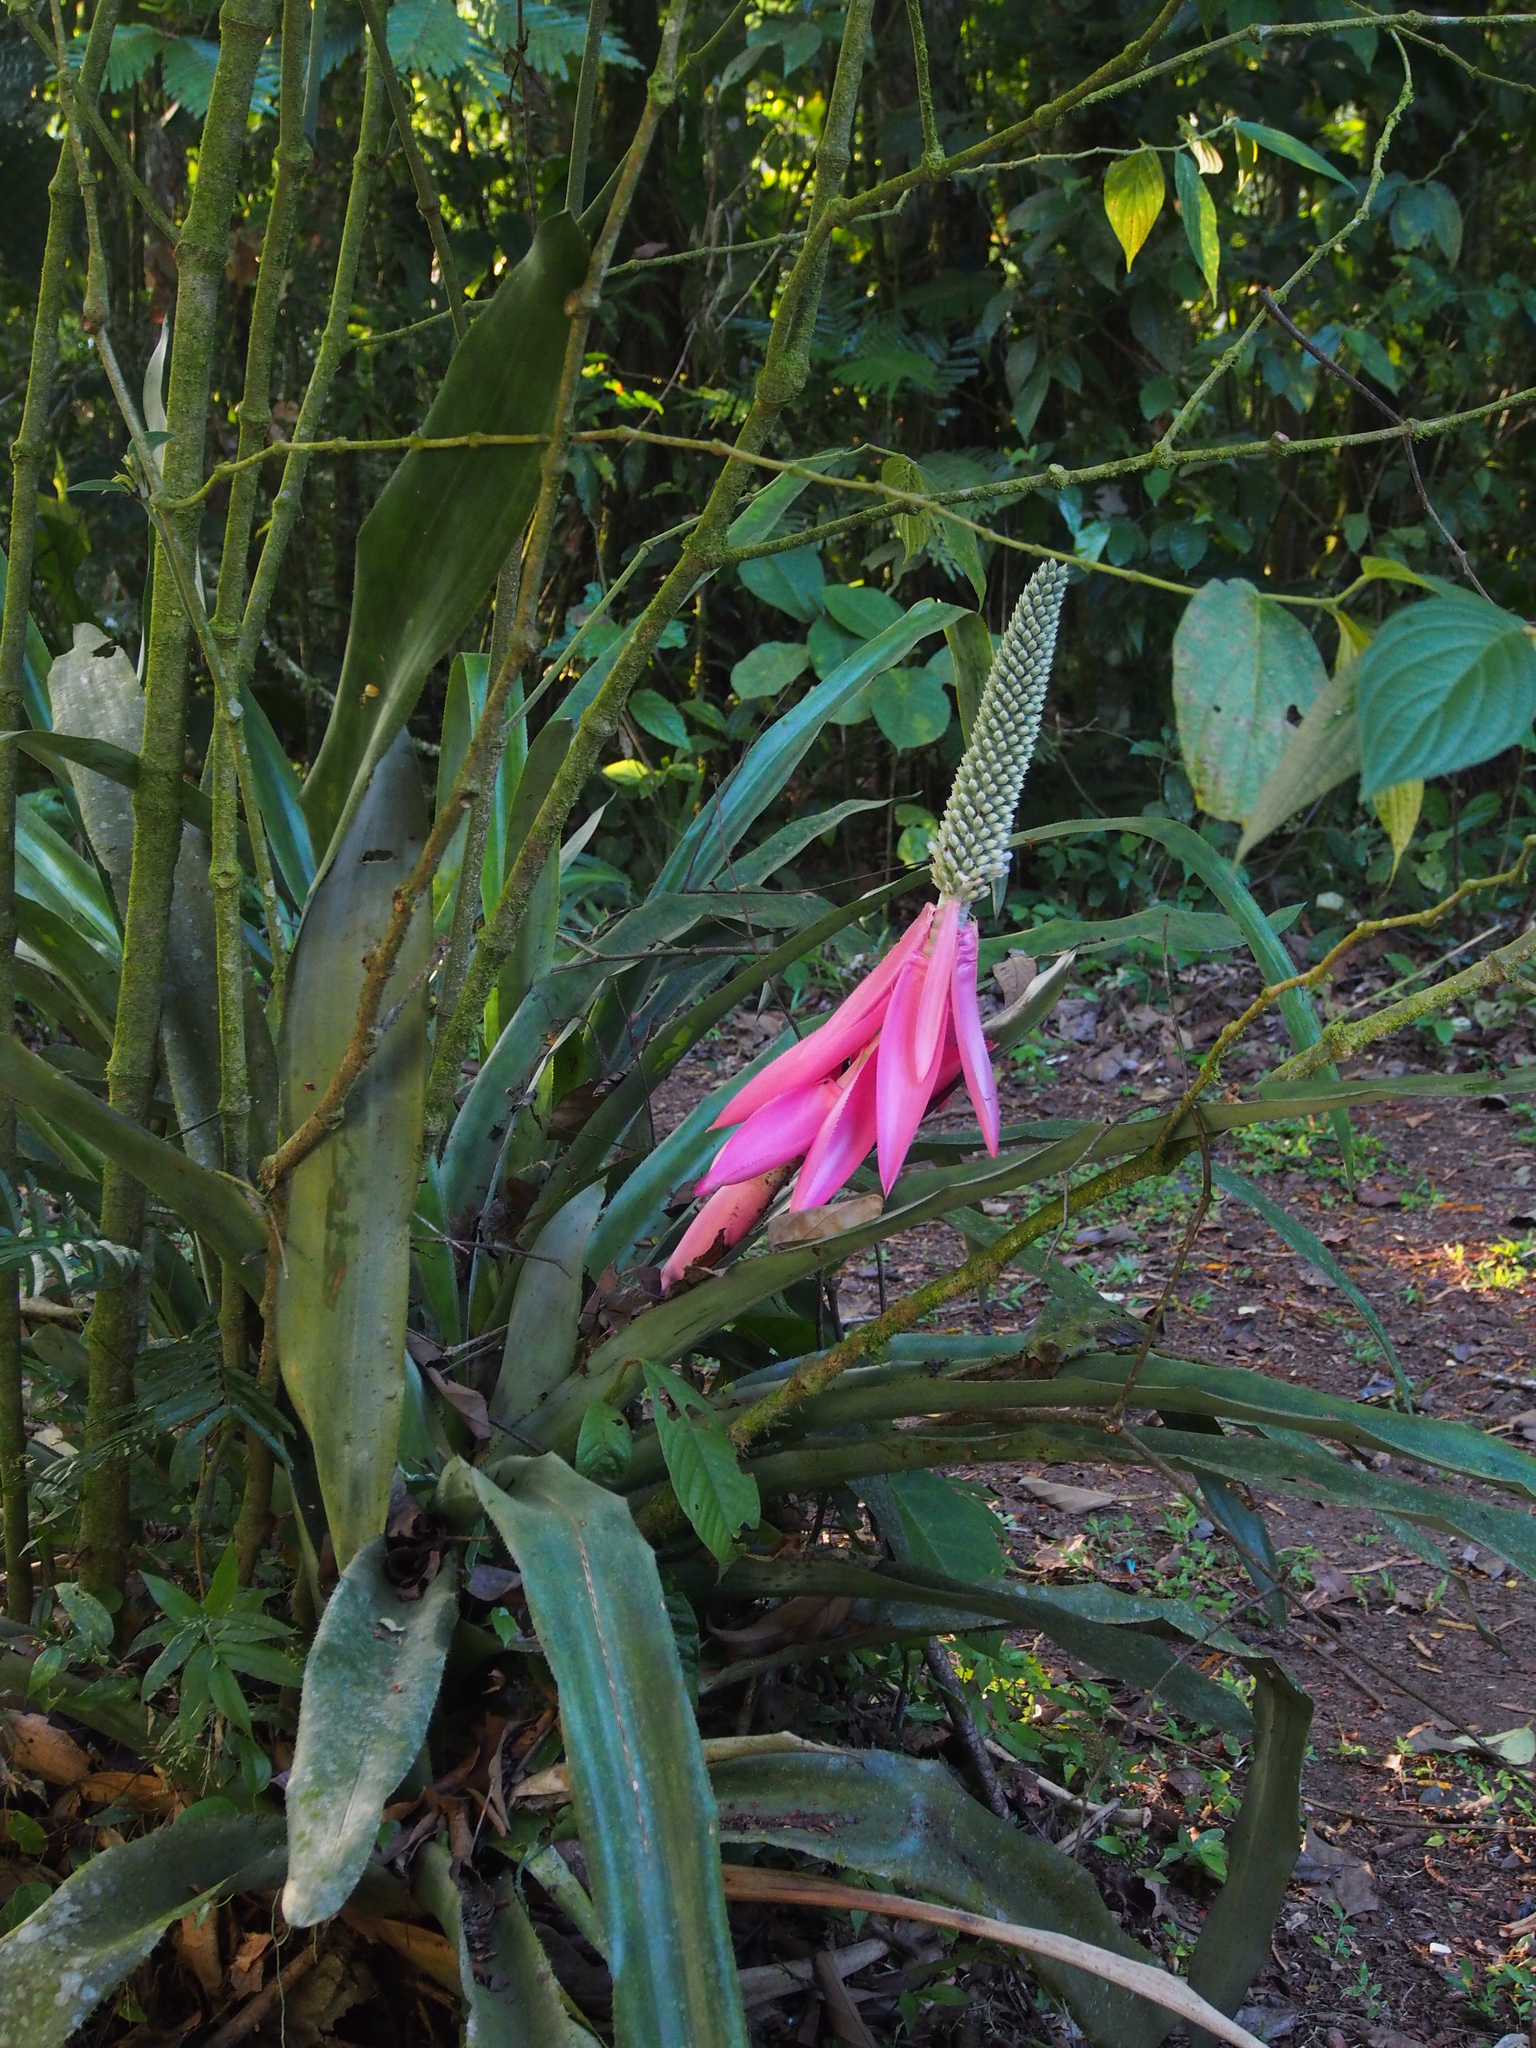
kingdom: Plantae
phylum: Tracheophyta
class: Liliopsida
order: Poales
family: Bromeliaceae
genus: Aechmea
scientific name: Aechmea mariae-reginae
